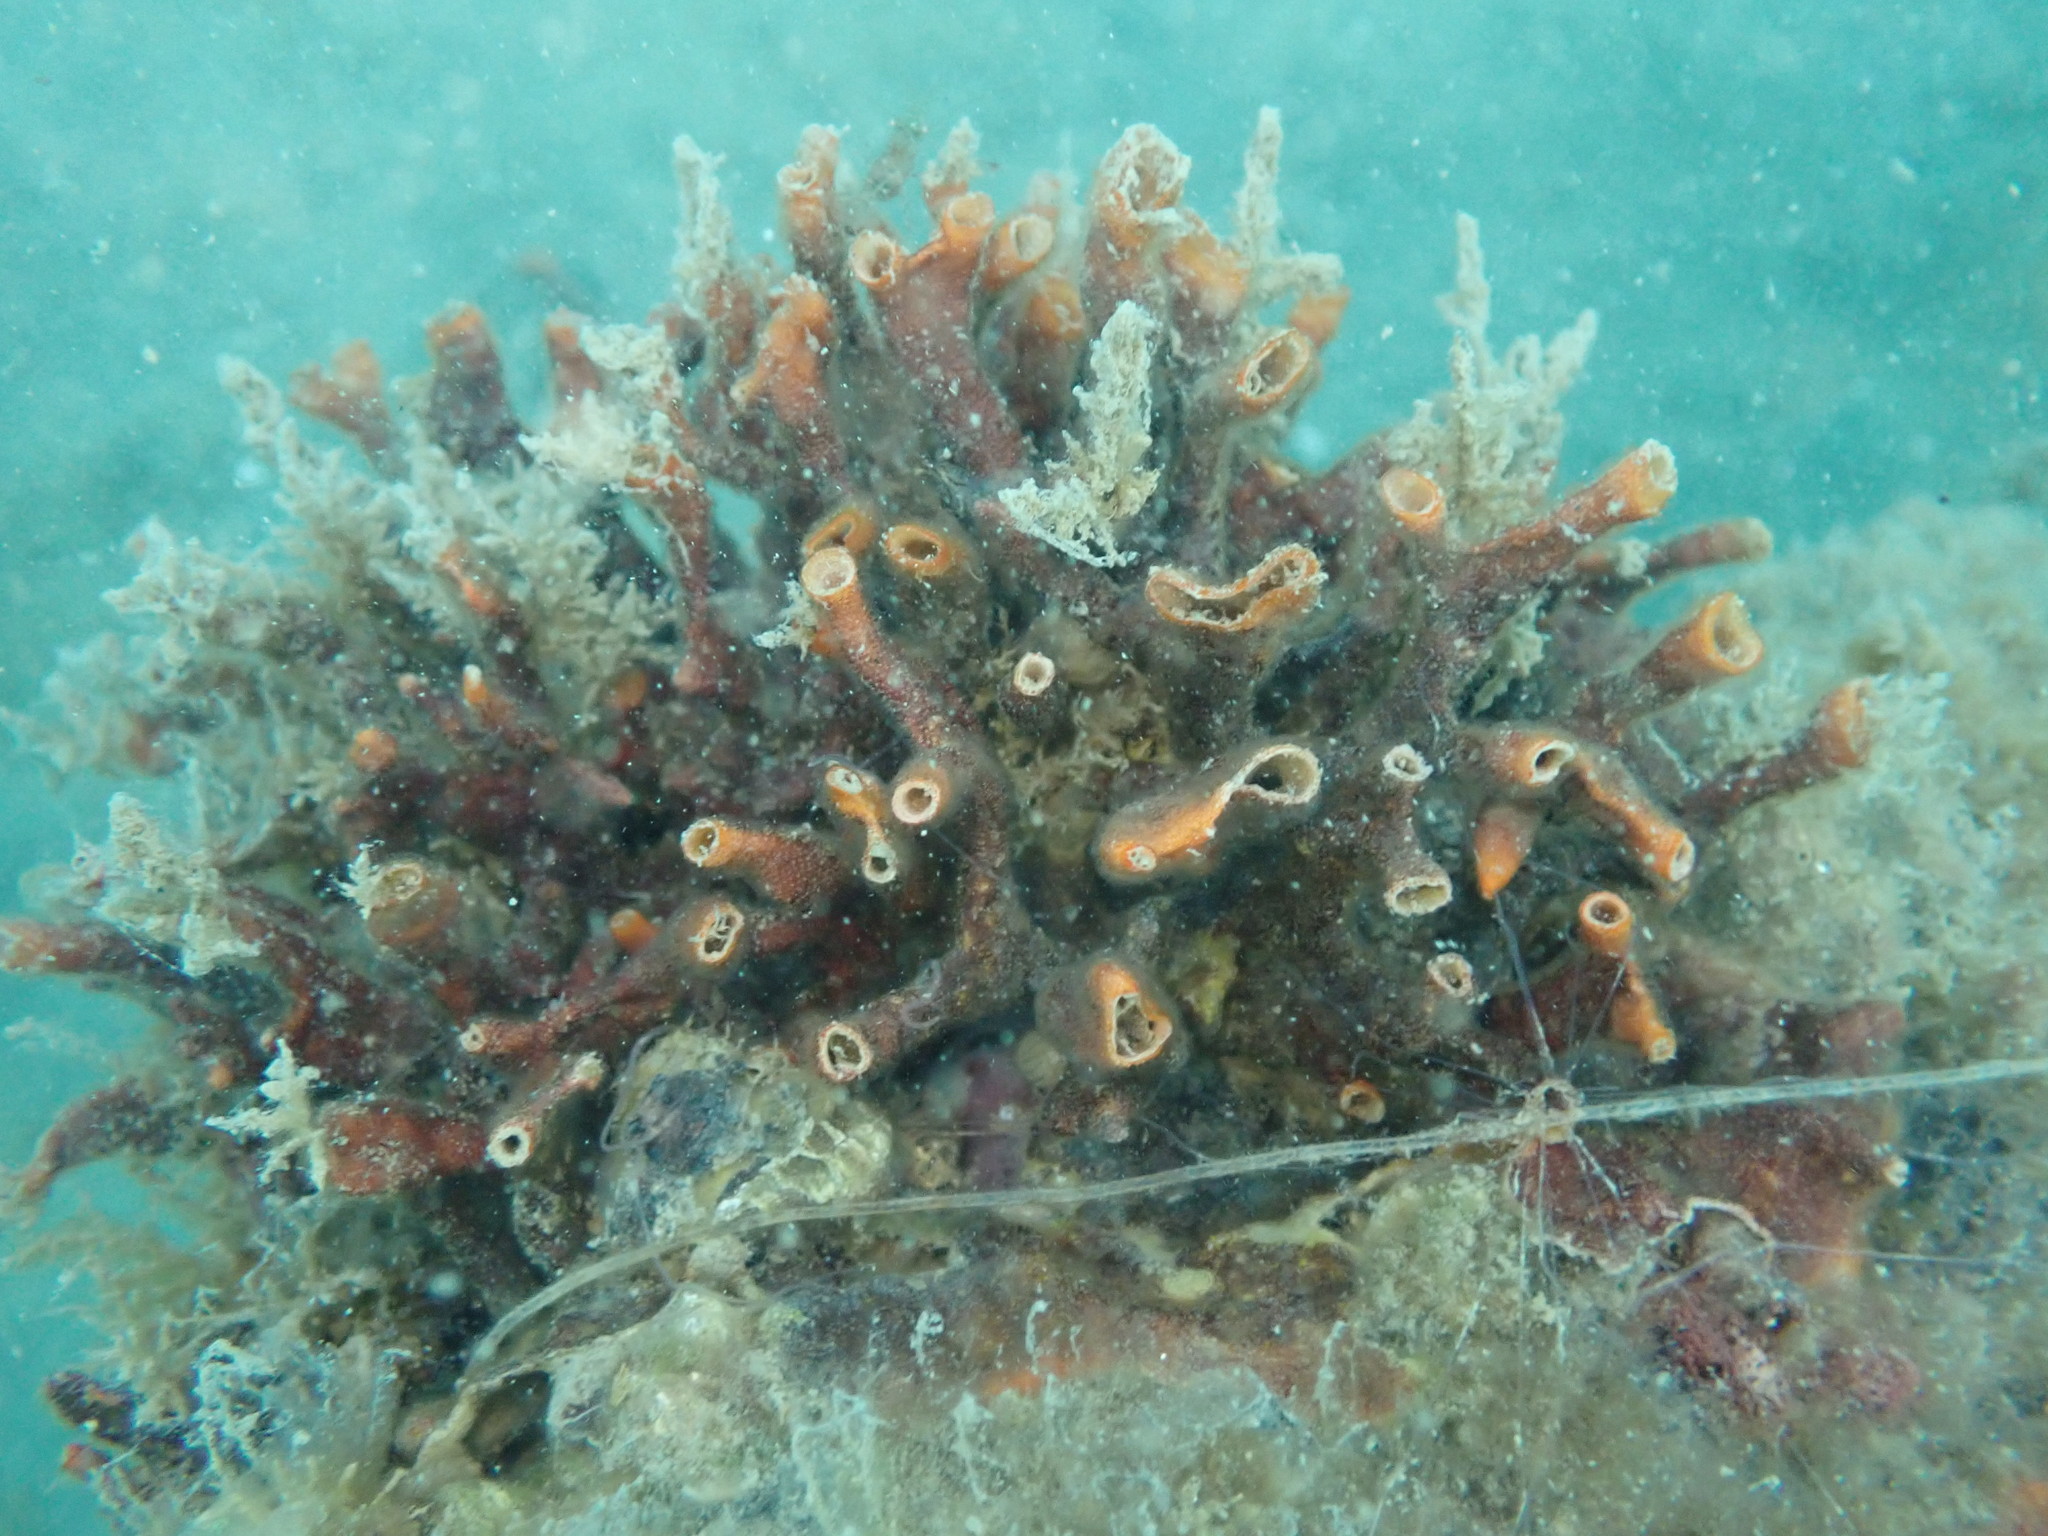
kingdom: Animalia
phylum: Bryozoa
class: Gymnolaemata
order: Cheilostomatida
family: Celleporidae
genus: Celleporaria
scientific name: Celleporaria agglutinans
